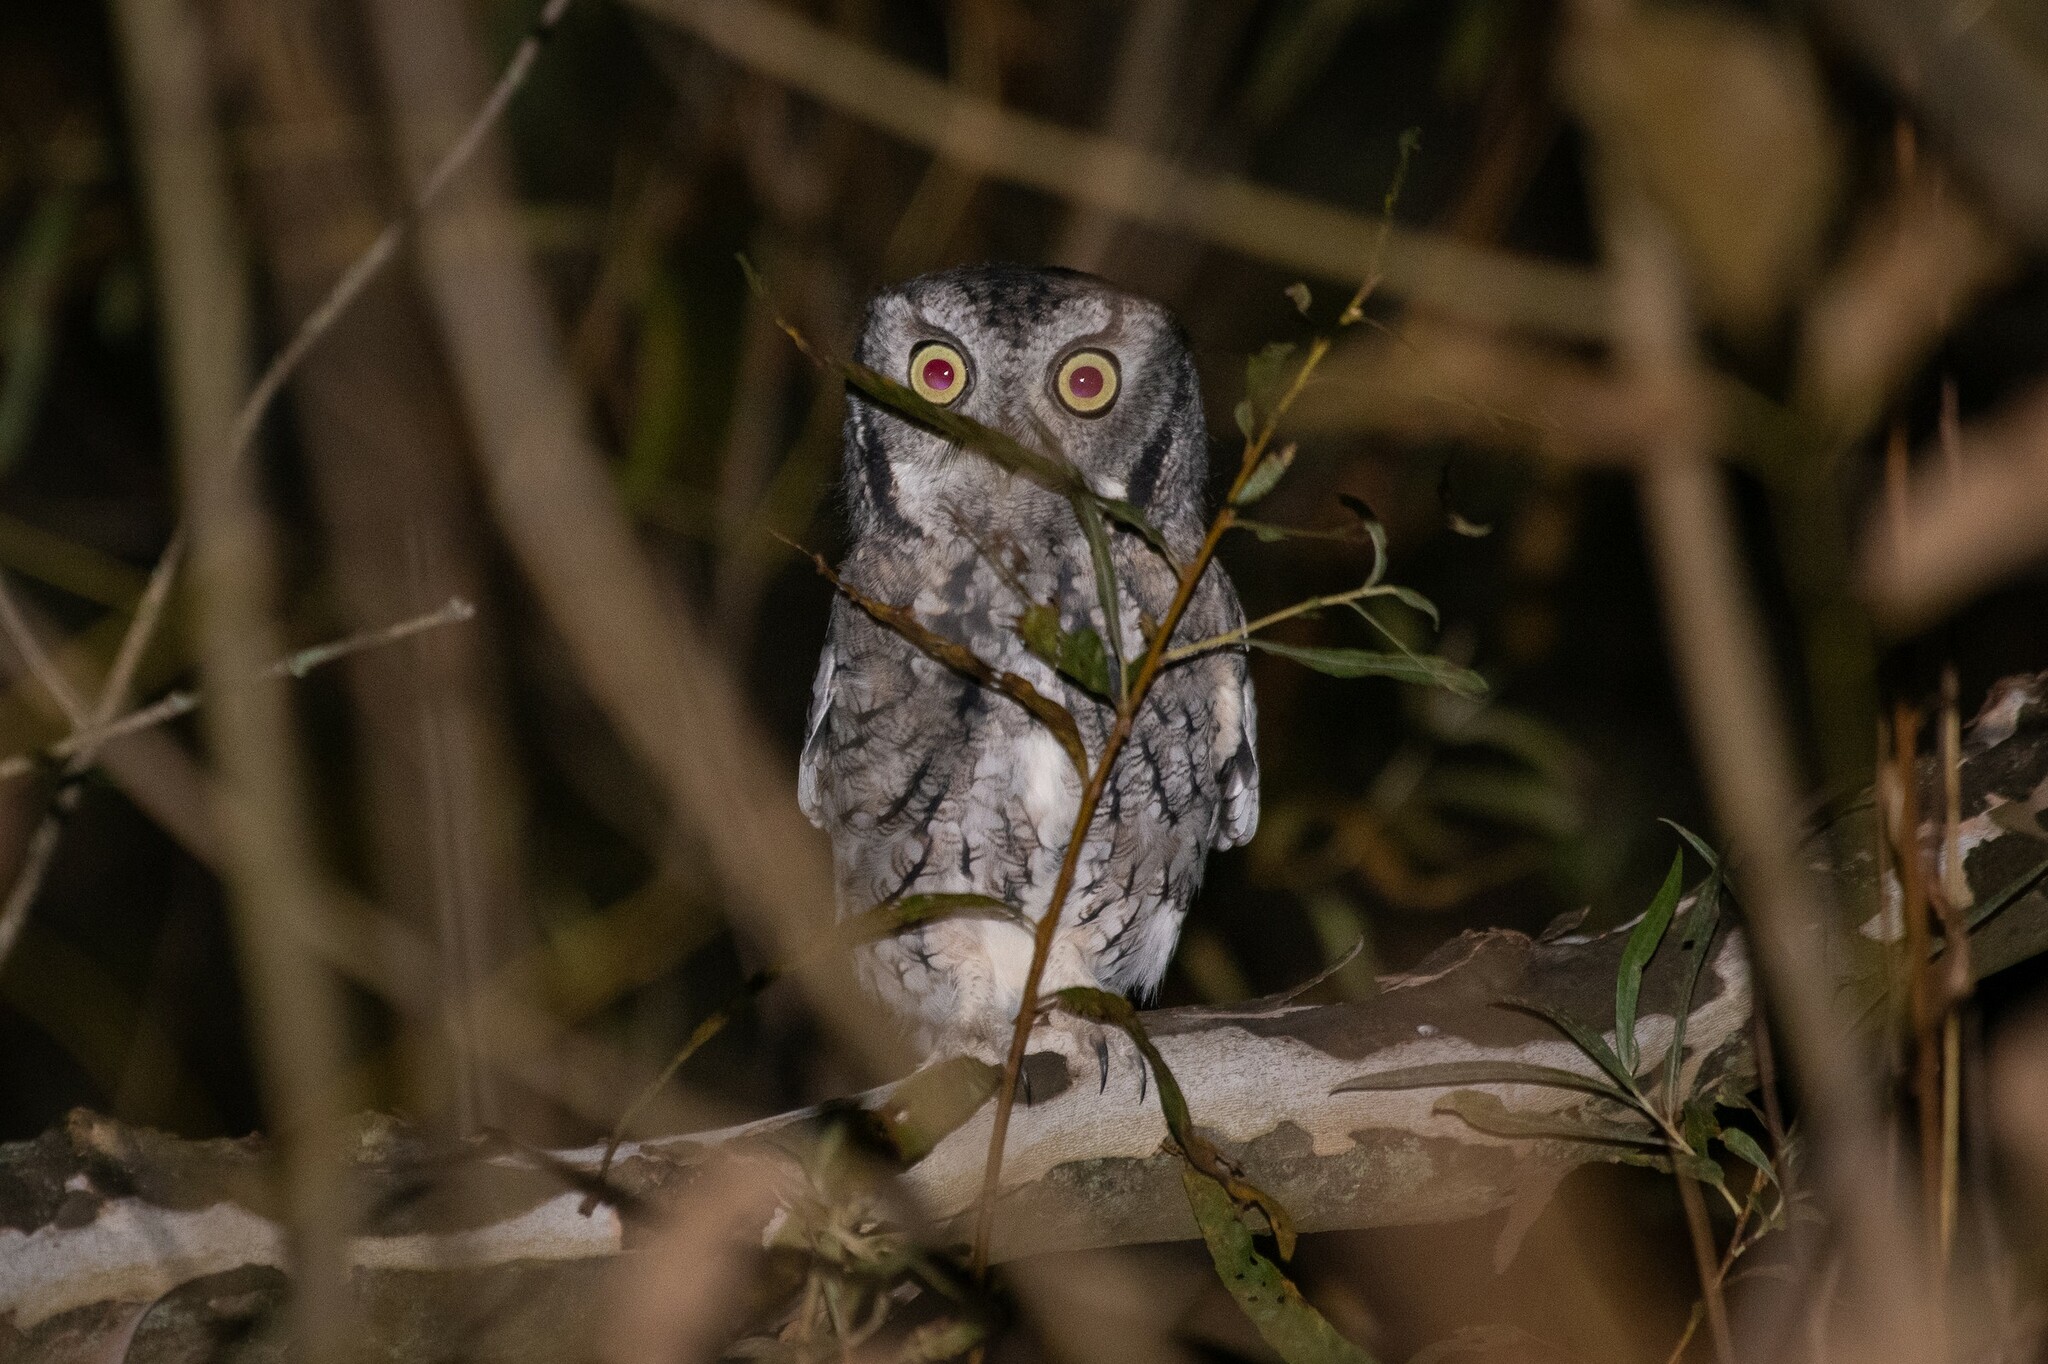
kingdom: Animalia
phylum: Chordata
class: Aves
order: Strigiformes
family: Strigidae
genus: Megascops
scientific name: Megascops asio
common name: Eastern screech-owl
